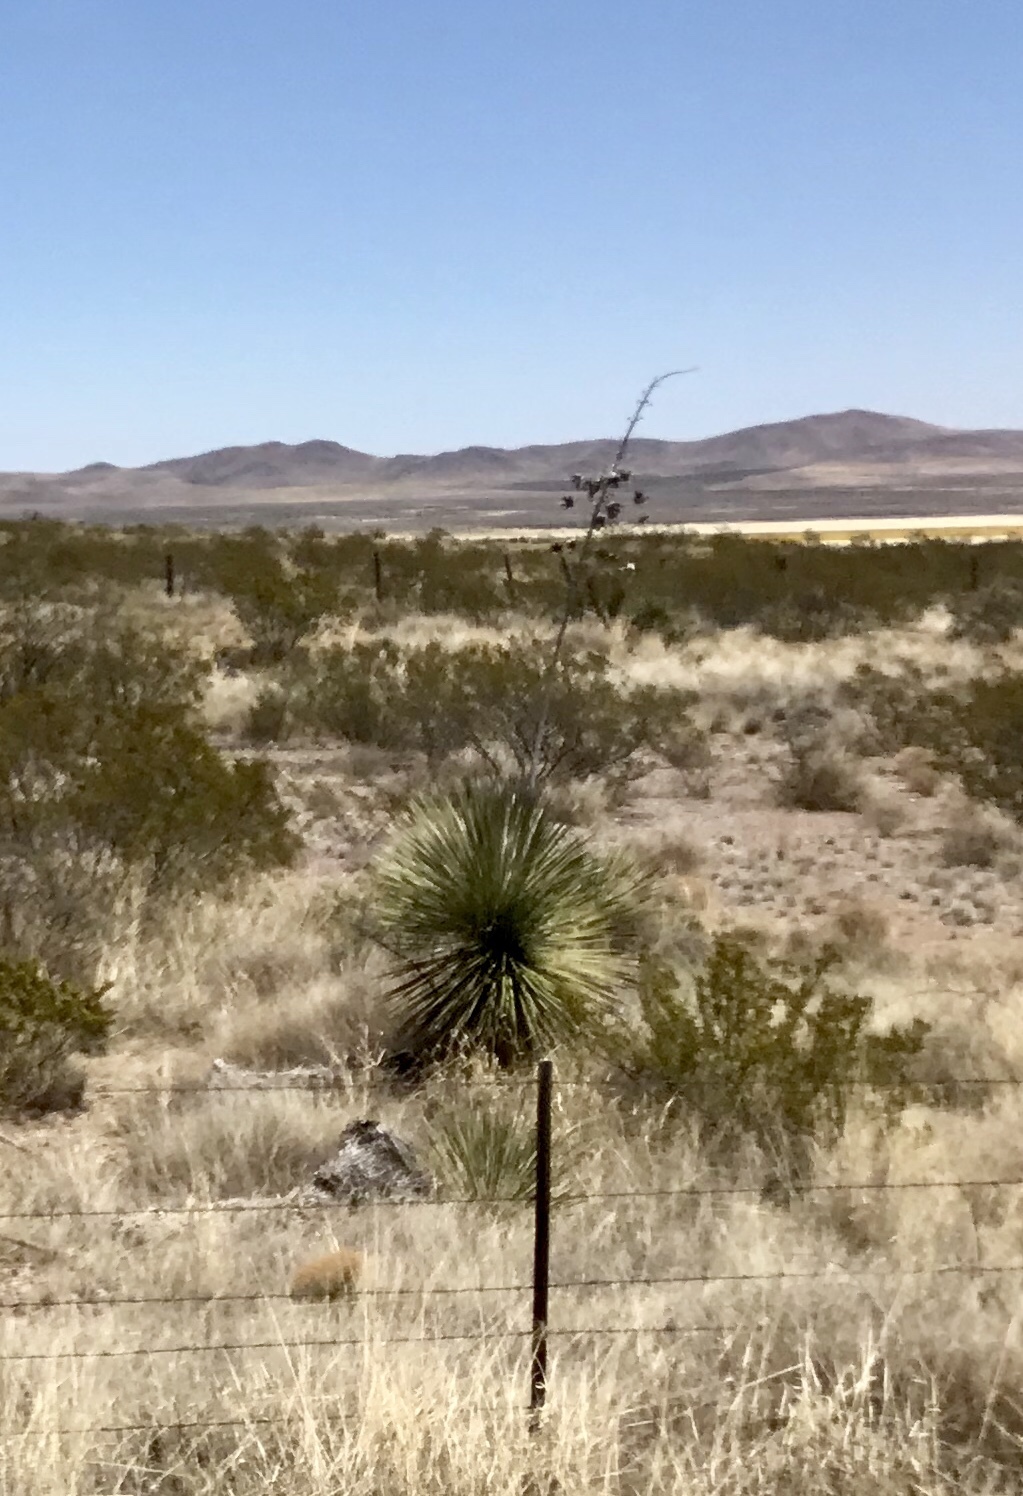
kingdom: Plantae
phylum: Tracheophyta
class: Liliopsida
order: Asparagales
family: Asparagaceae
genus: Yucca
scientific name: Yucca elata
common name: Palmella
